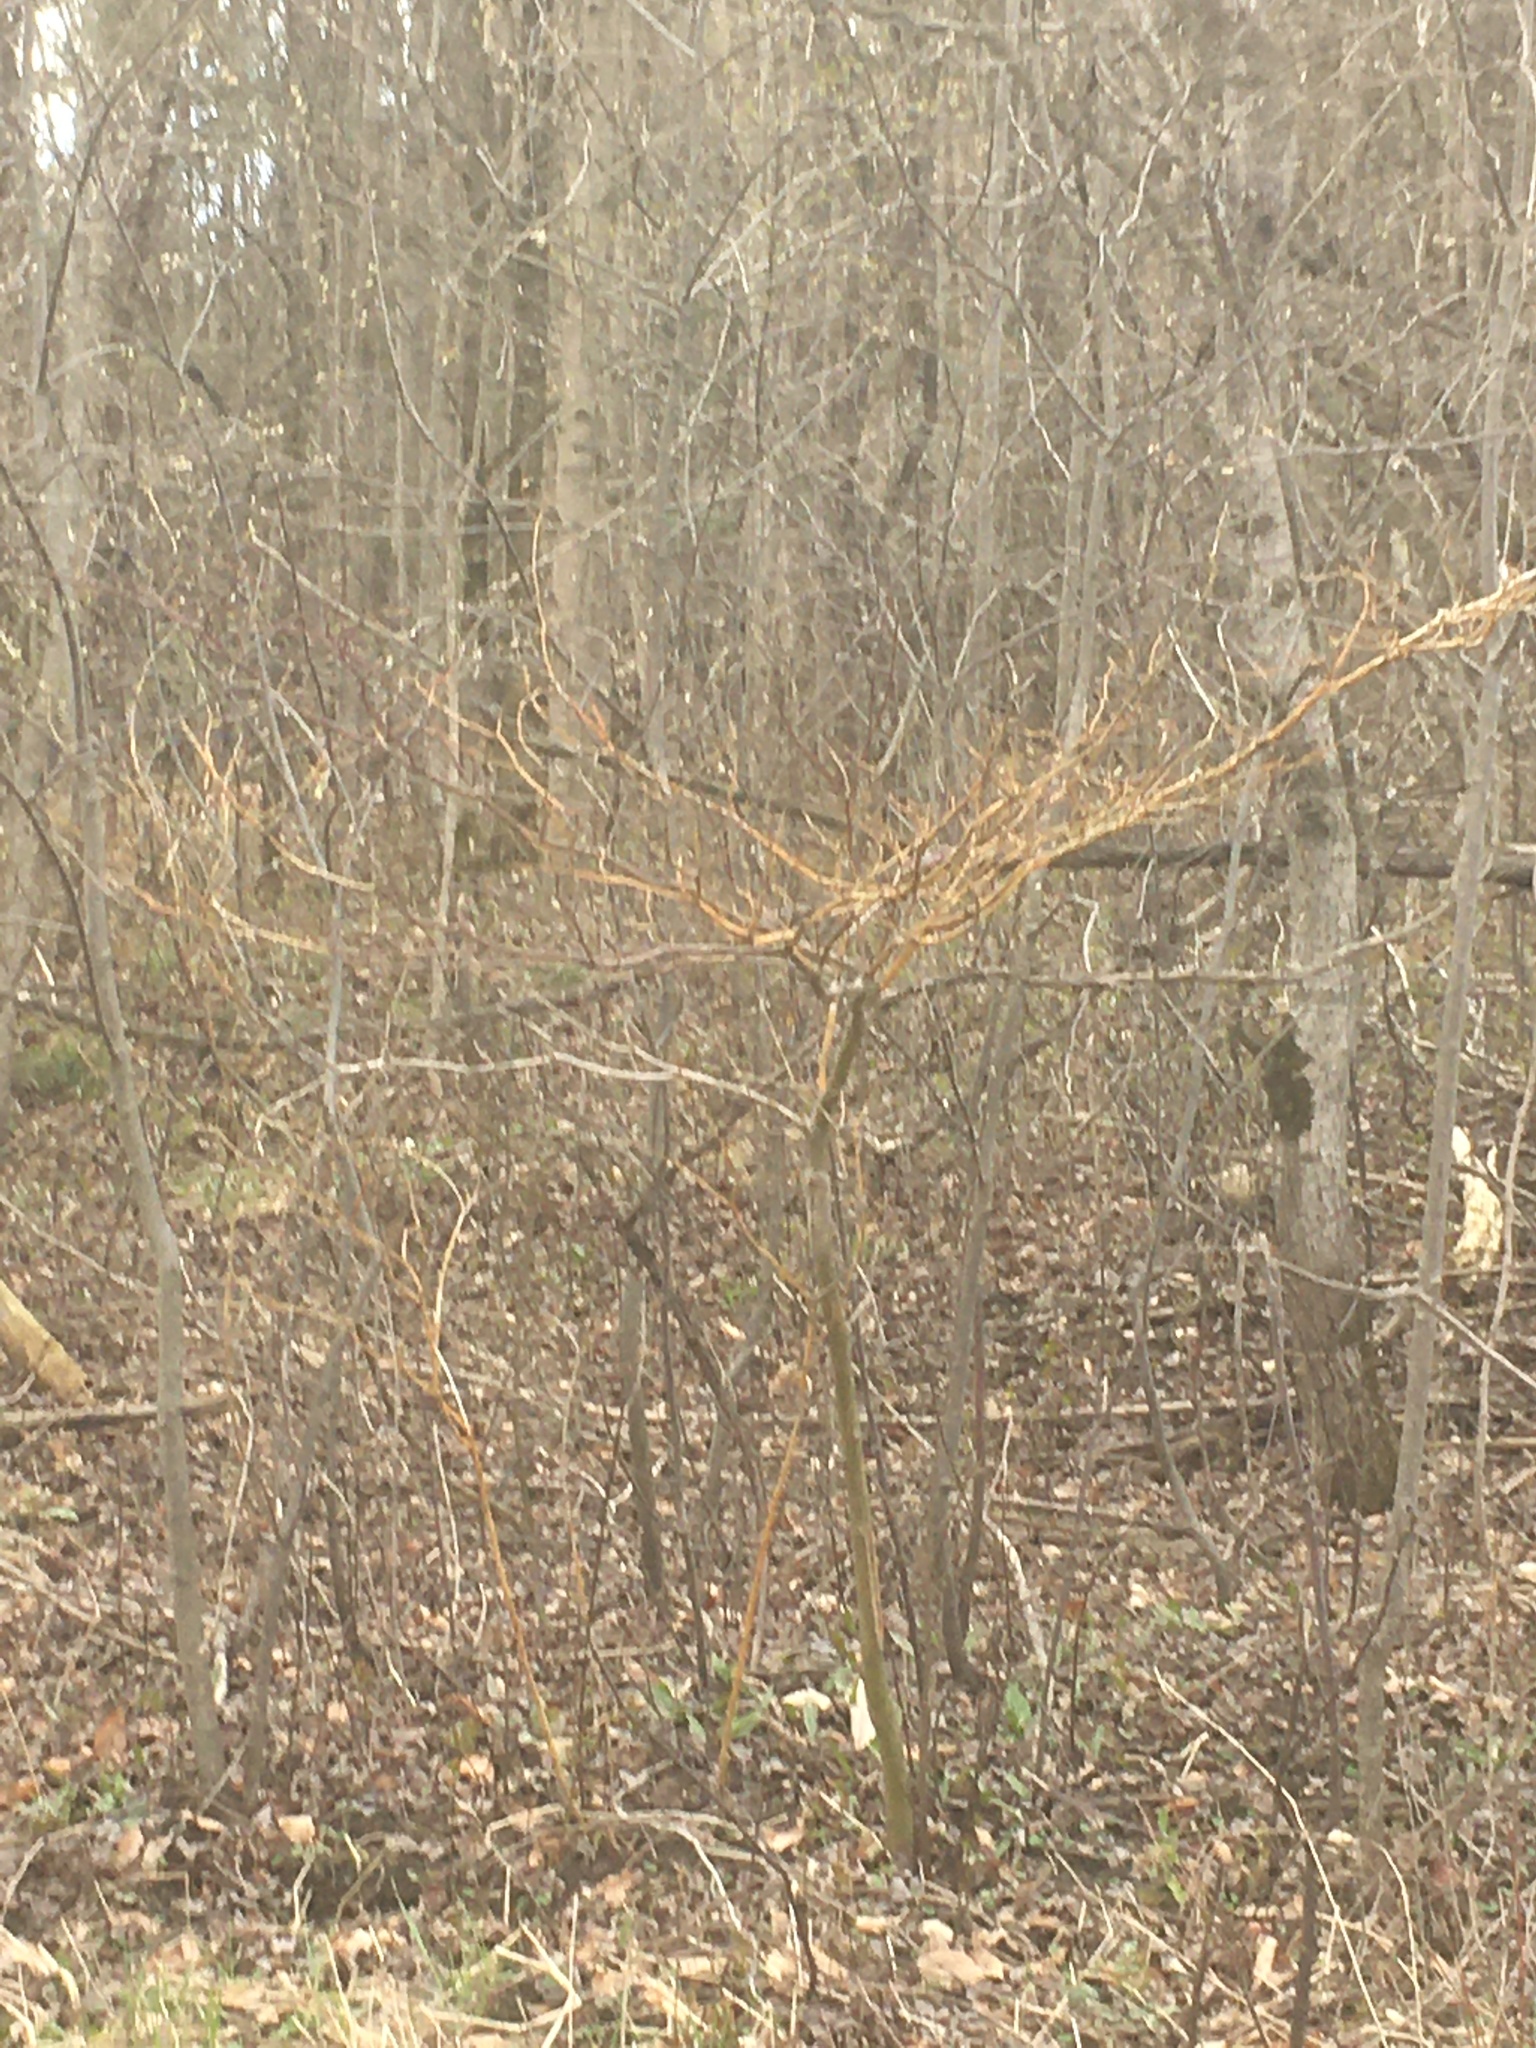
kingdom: Plantae
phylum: Tracheophyta
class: Magnoliopsida
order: Cornales
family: Cornaceae
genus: Cornus
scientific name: Cornus alternifolia
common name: Pagoda dogwood
